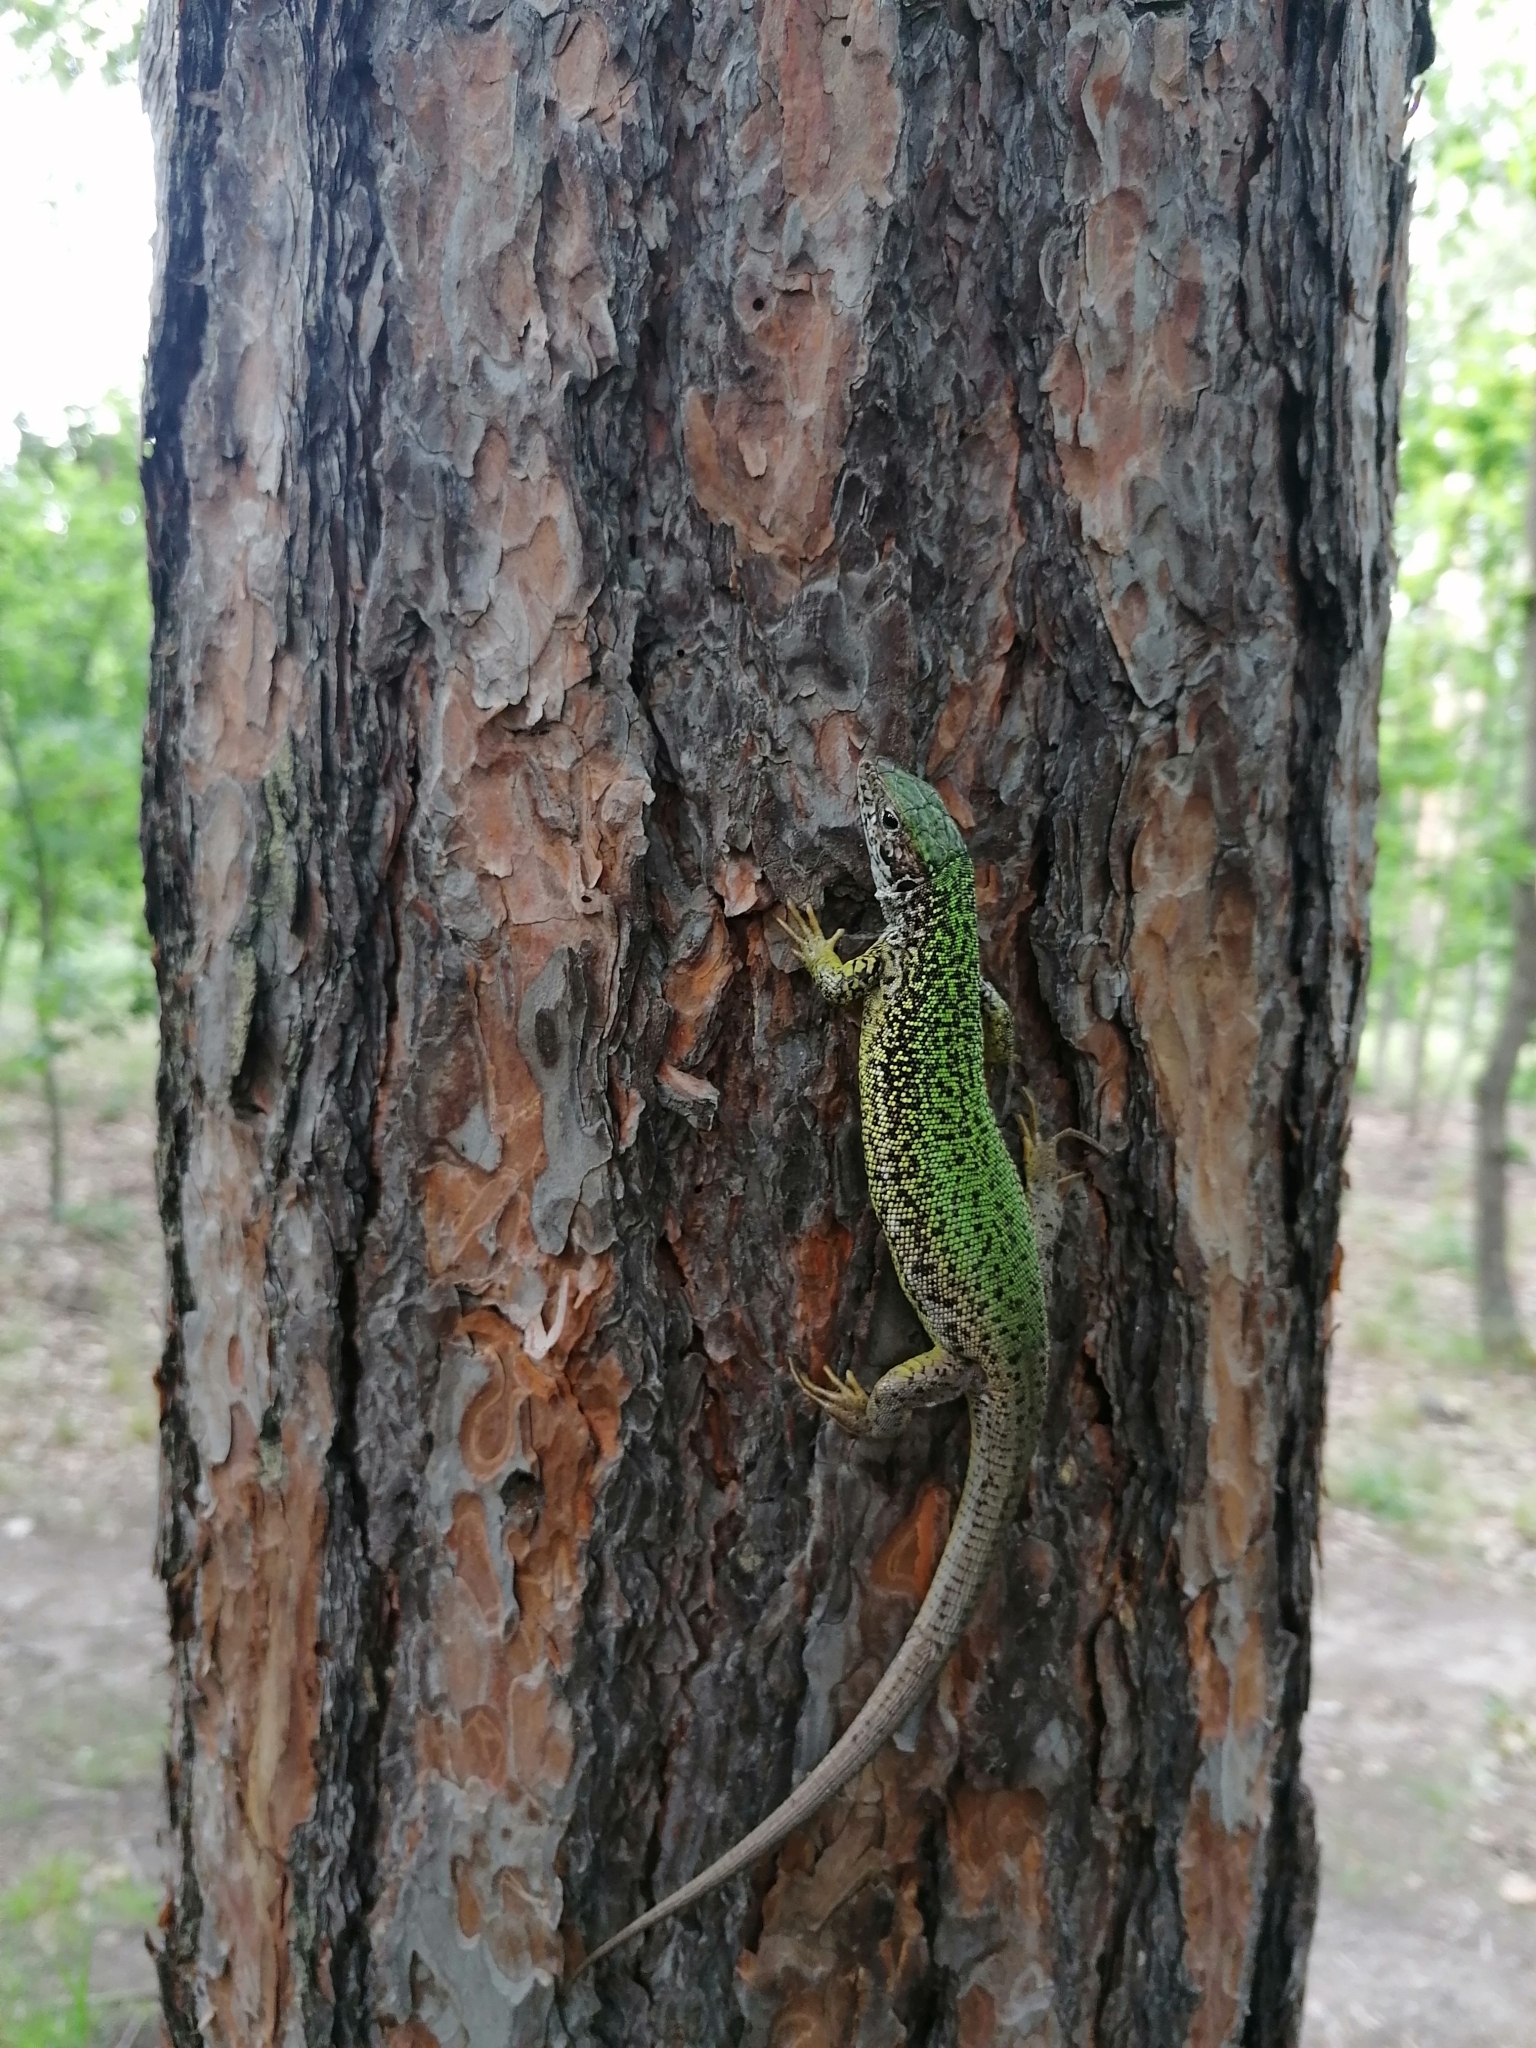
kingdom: Animalia
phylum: Chordata
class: Squamata
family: Lacertidae
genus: Lacerta
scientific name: Lacerta viridis
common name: European green lizard
